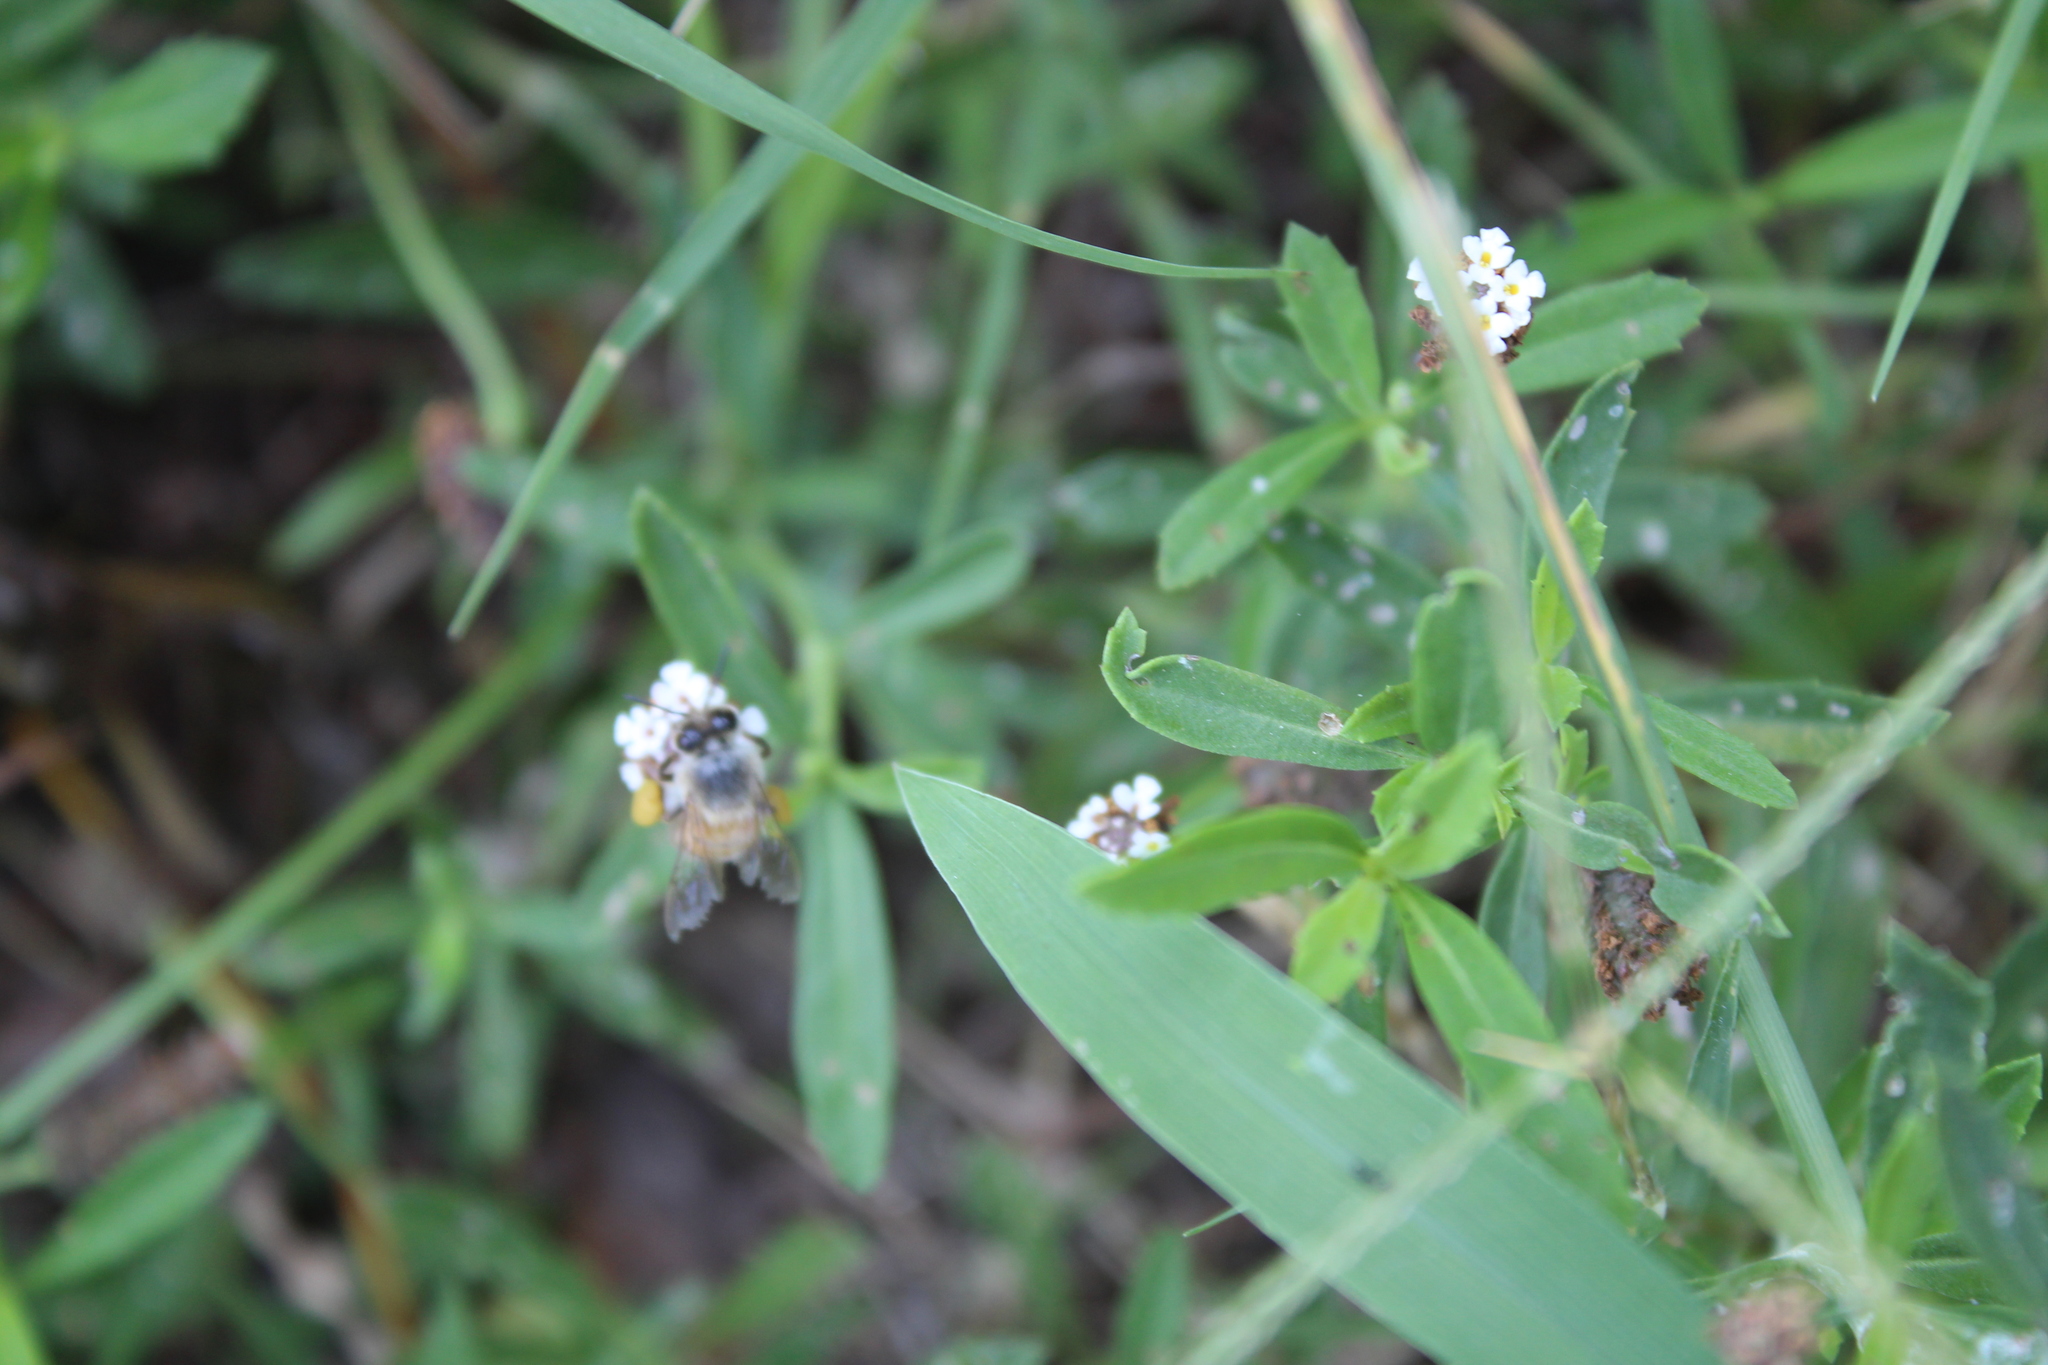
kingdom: Animalia
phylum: Arthropoda
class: Insecta
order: Hymenoptera
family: Apidae
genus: Apis
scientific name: Apis mellifera
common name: Honey bee
